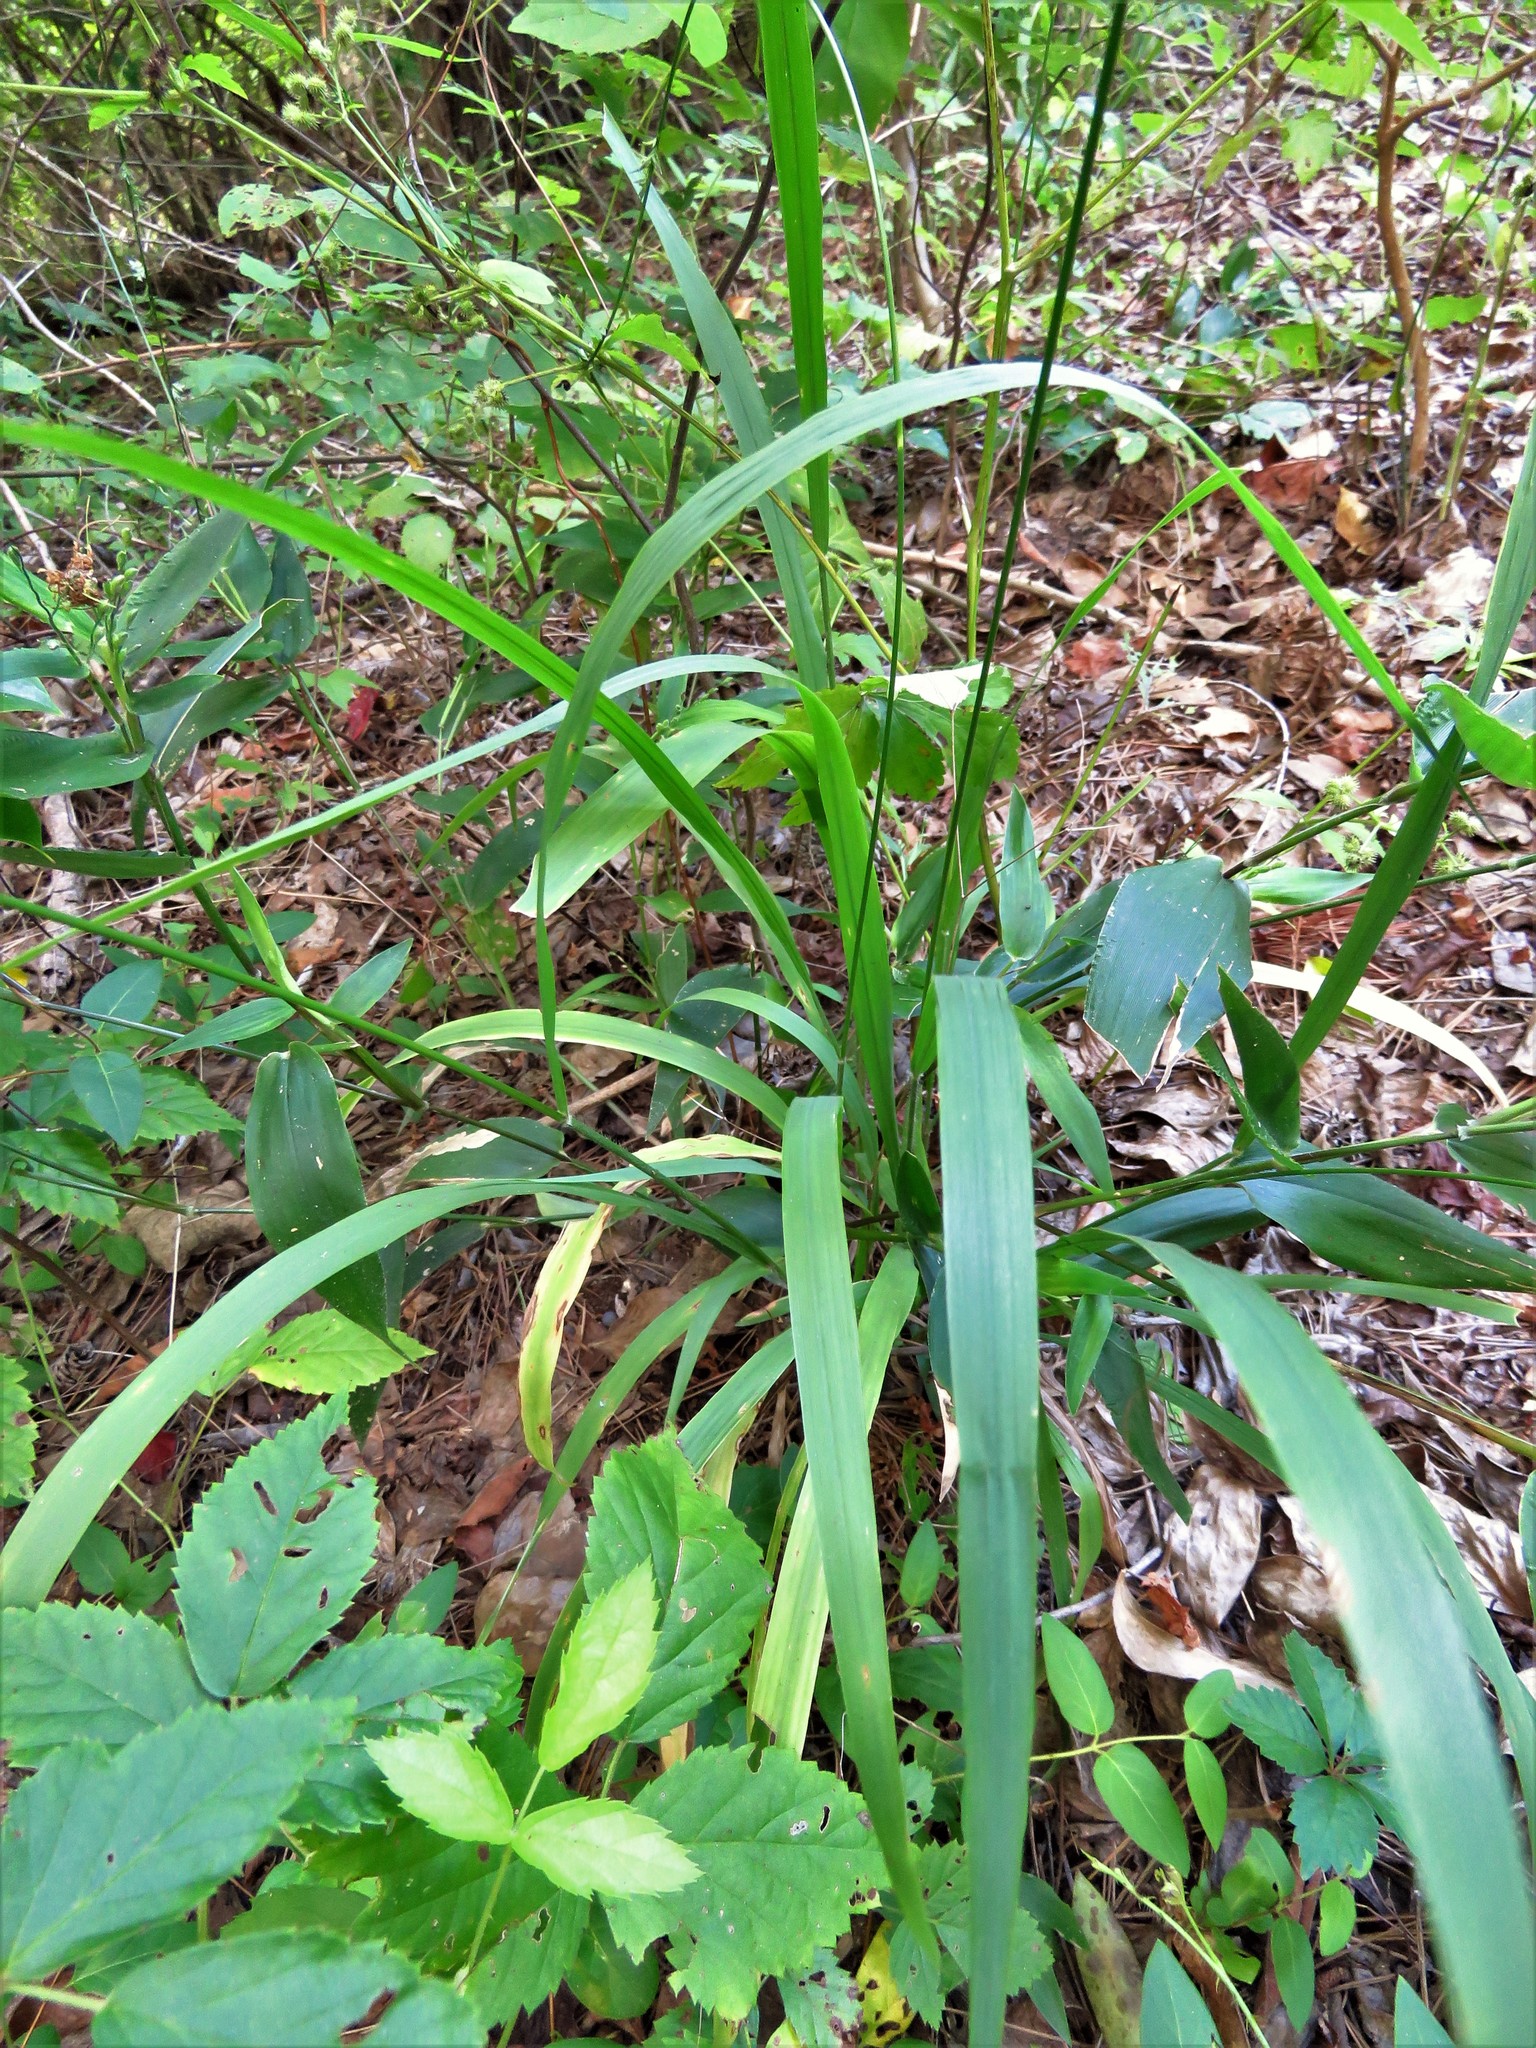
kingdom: Plantae
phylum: Tracheophyta
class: Liliopsida
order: Poales
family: Poaceae
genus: Chasmanthium
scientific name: Chasmanthium laxum
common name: Slender chasmanthium
